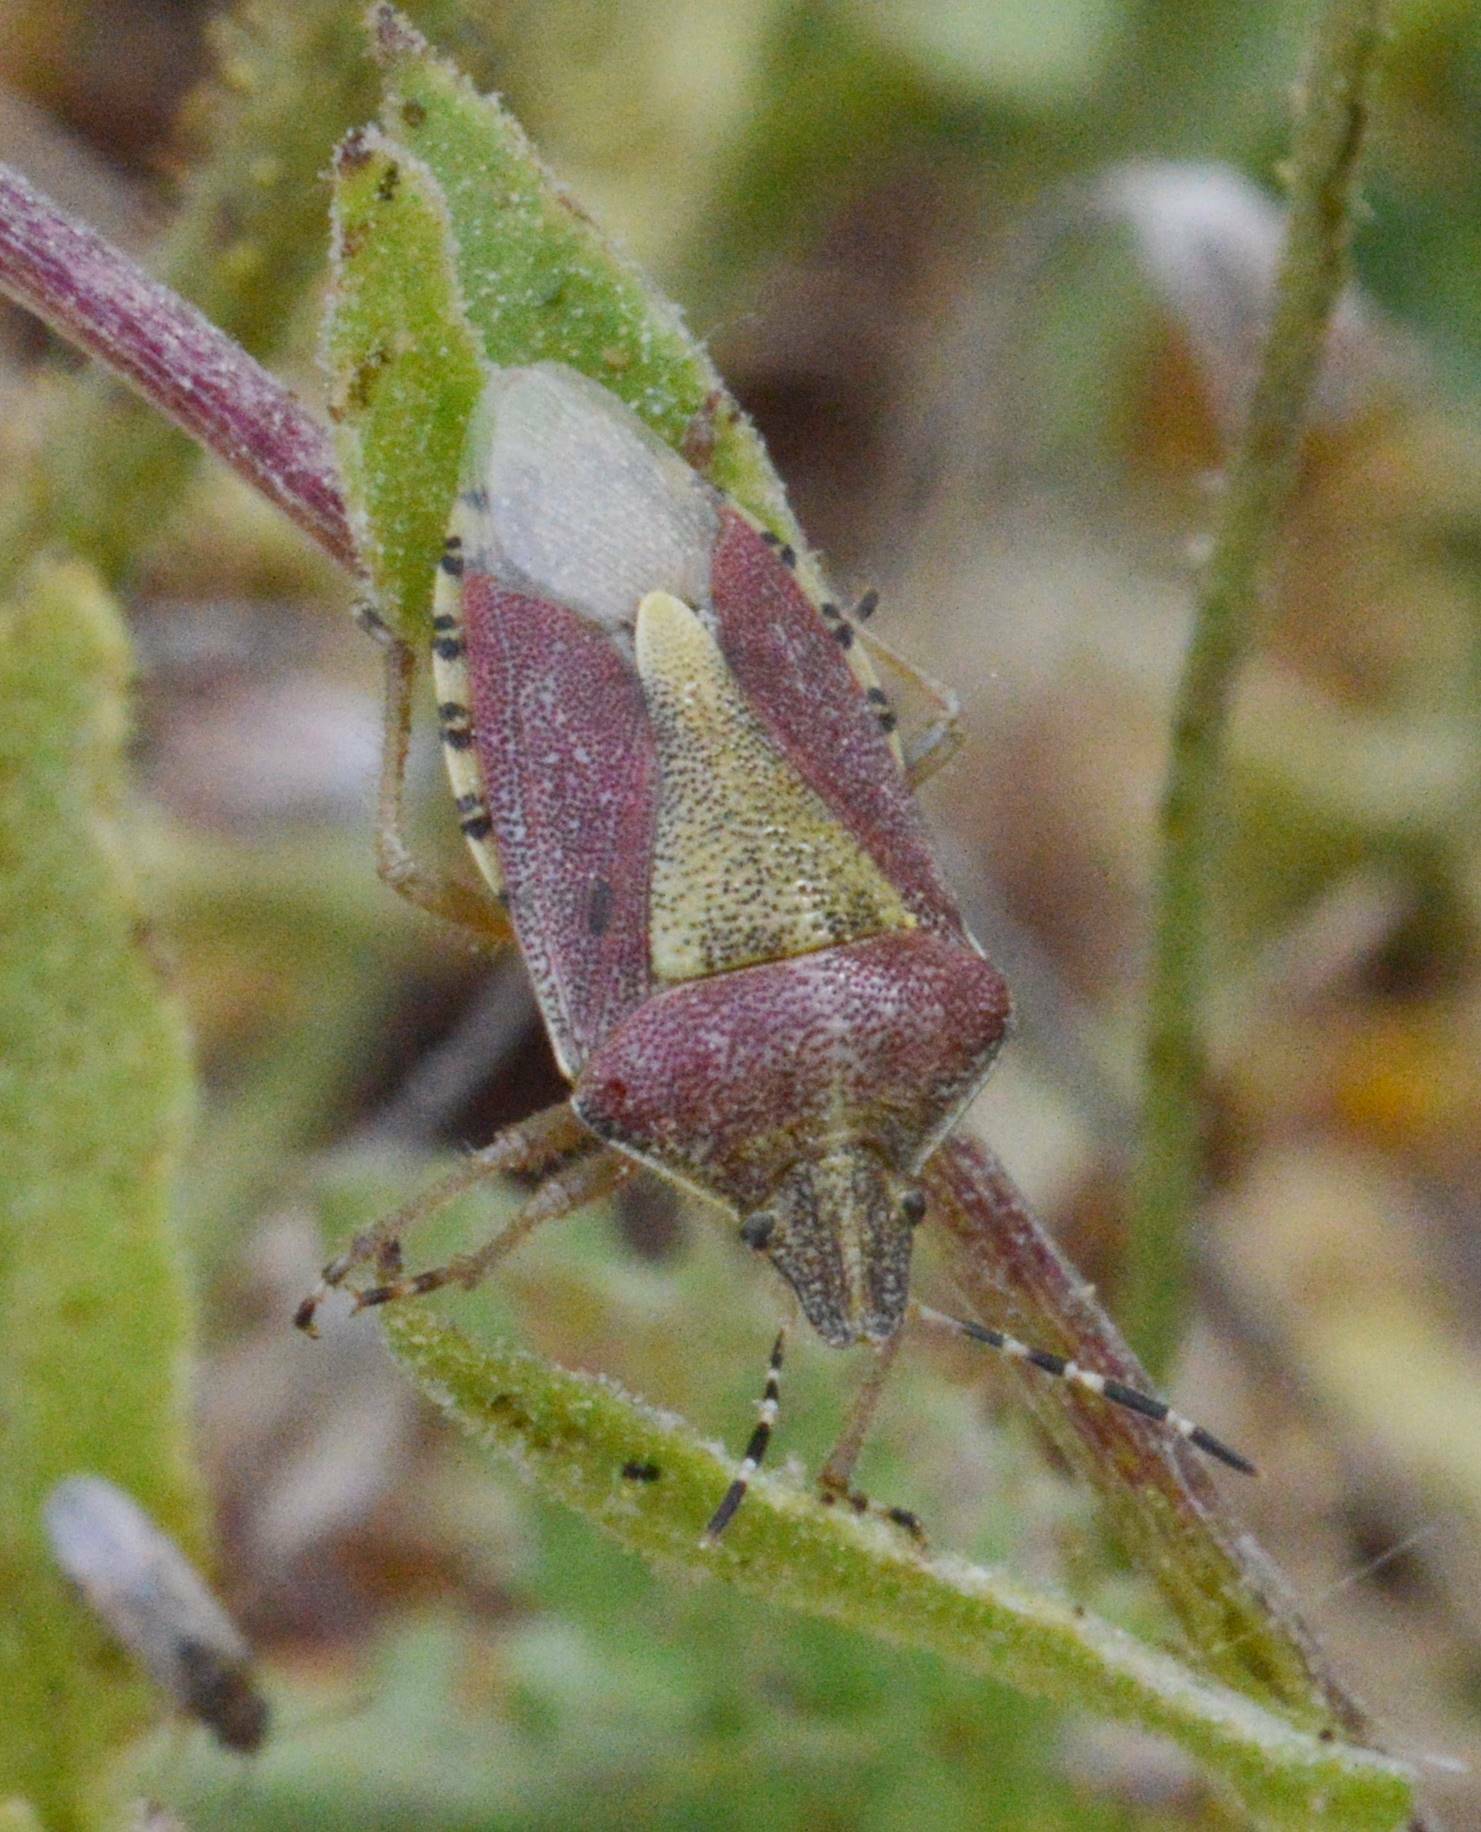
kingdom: Animalia
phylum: Arthropoda
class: Insecta
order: Hemiptera
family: Pentatomidae
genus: Dolycoris
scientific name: Dolycoris baccarum
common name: Sloe bug
